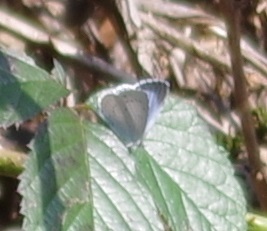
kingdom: Animalia
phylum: Arthropoda
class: Insecta
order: Lepidoptera
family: Lycaenidae
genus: Celastrina
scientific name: Celastrina argiolus
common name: Holly blue
